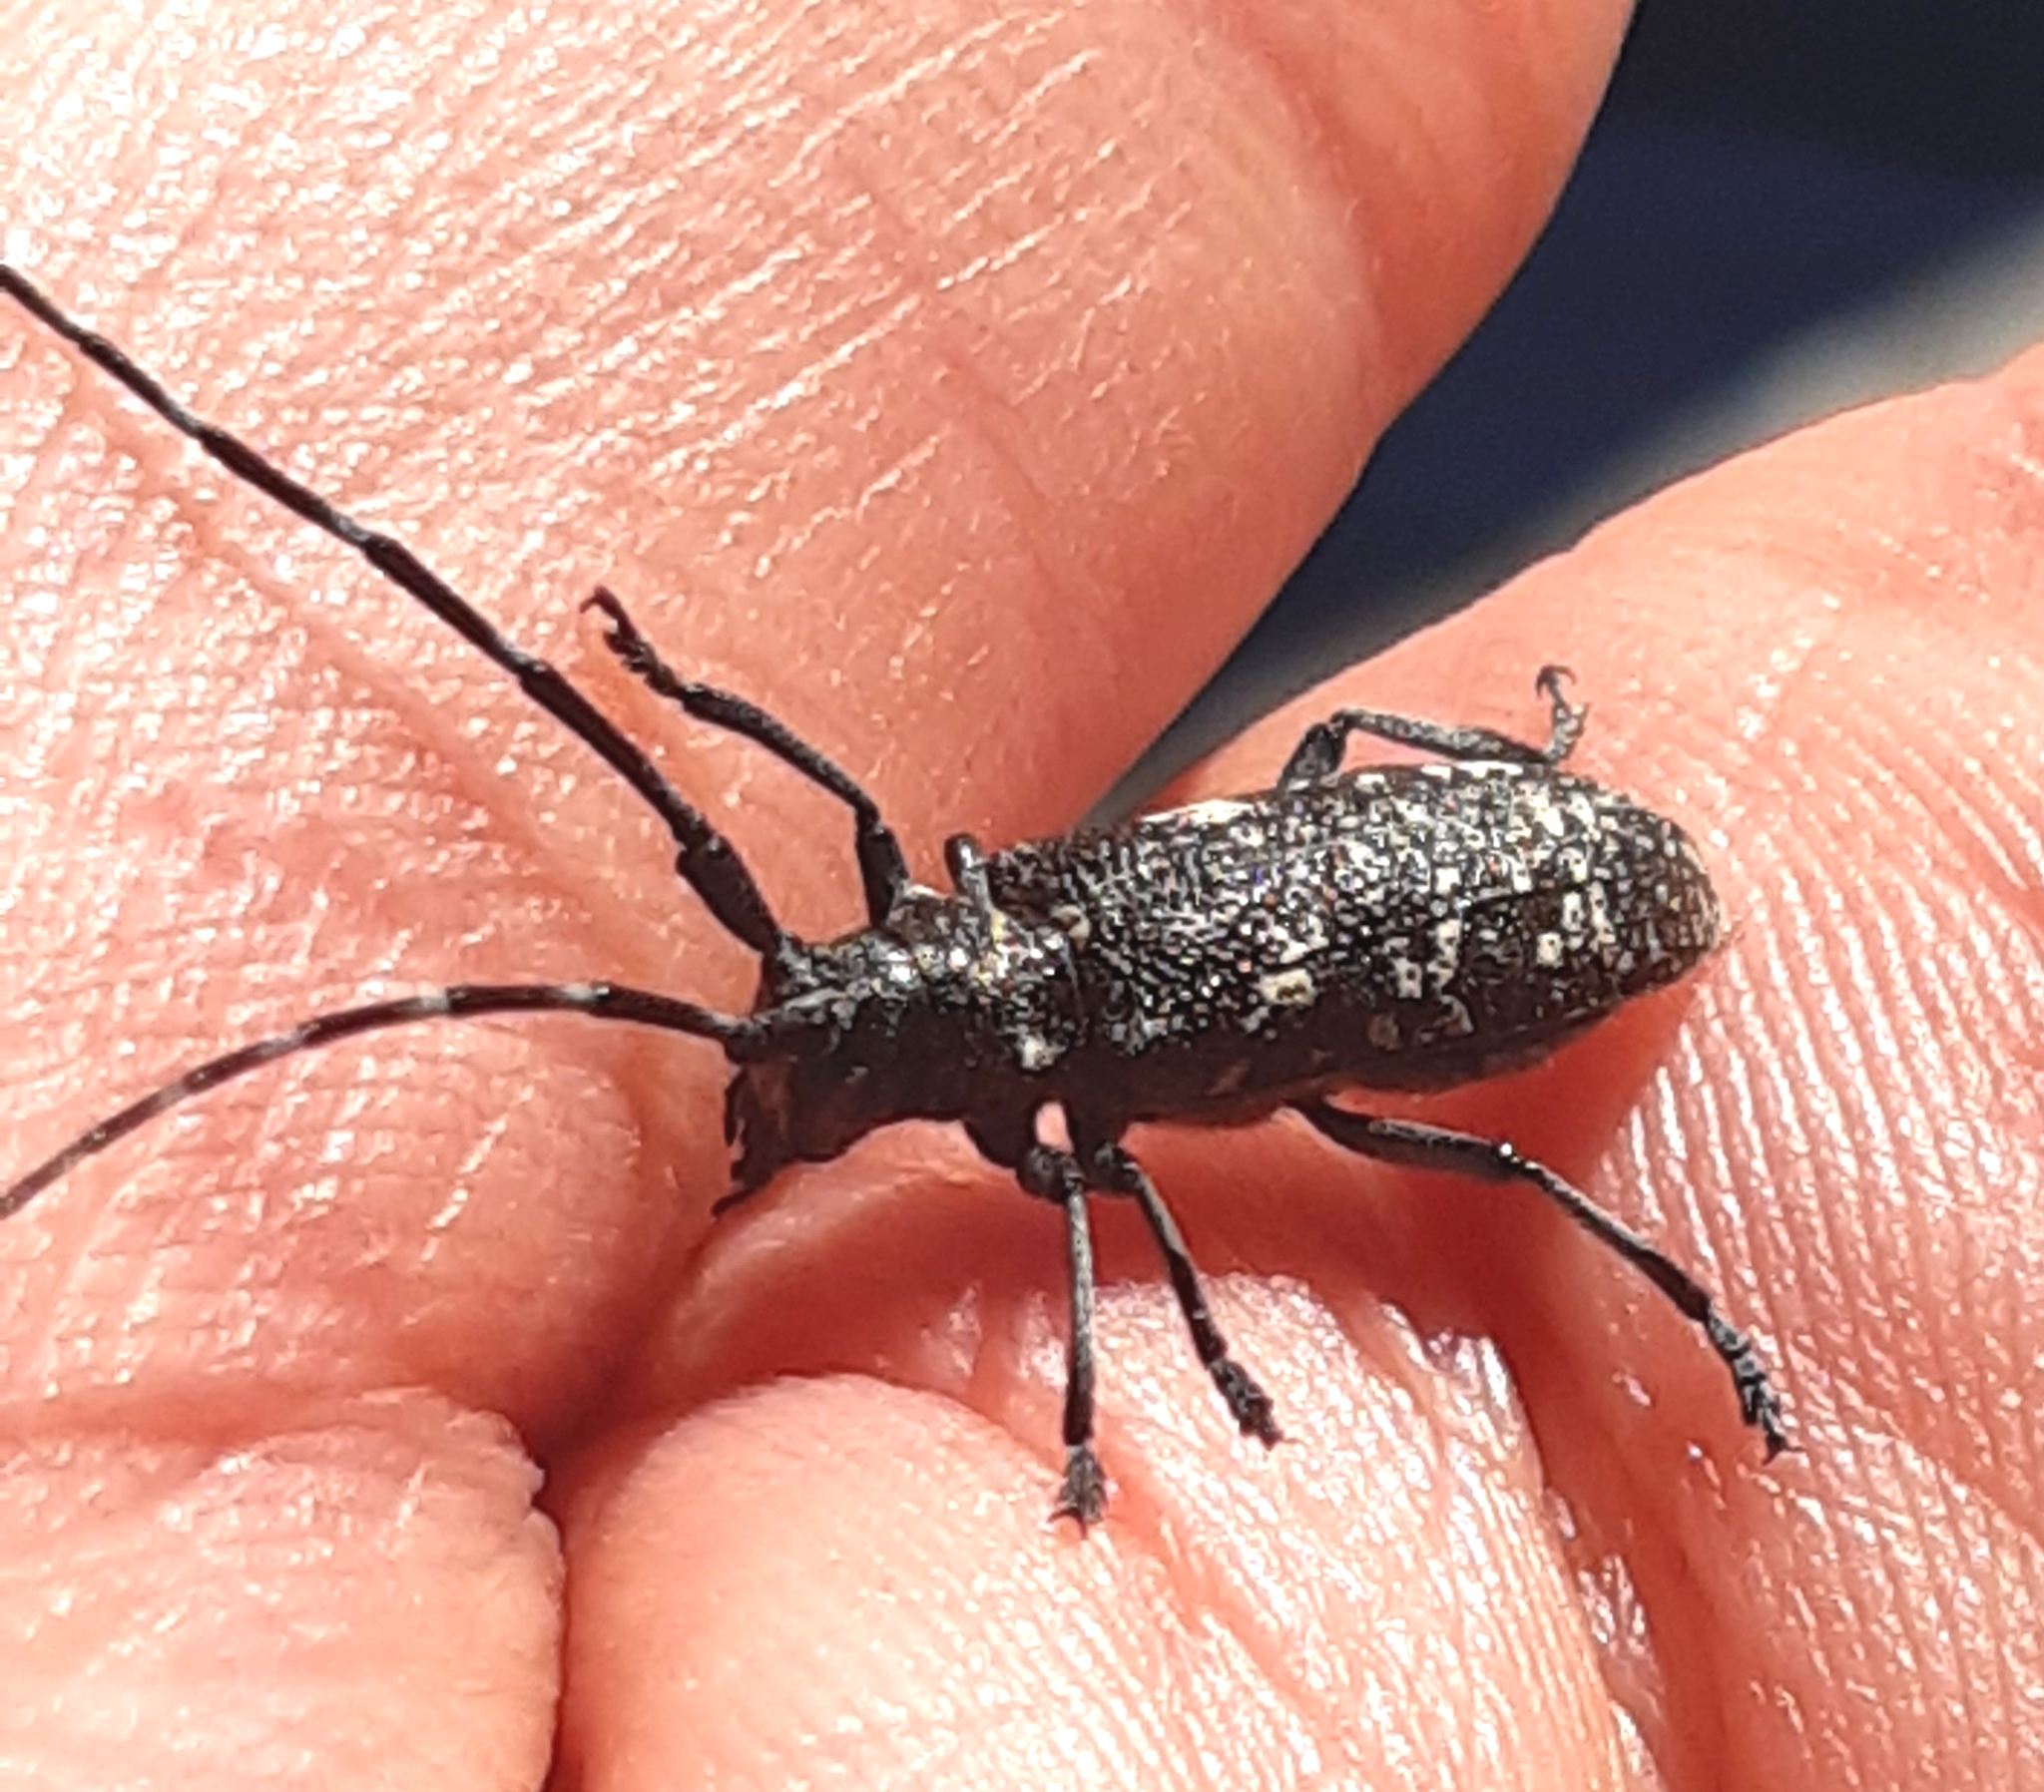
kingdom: Animalia
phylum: Arthropoda
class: Insecta
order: Coleoptera
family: Cerambycidae
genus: Monochamus
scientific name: Monochamus sutor
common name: Pine sawyer
